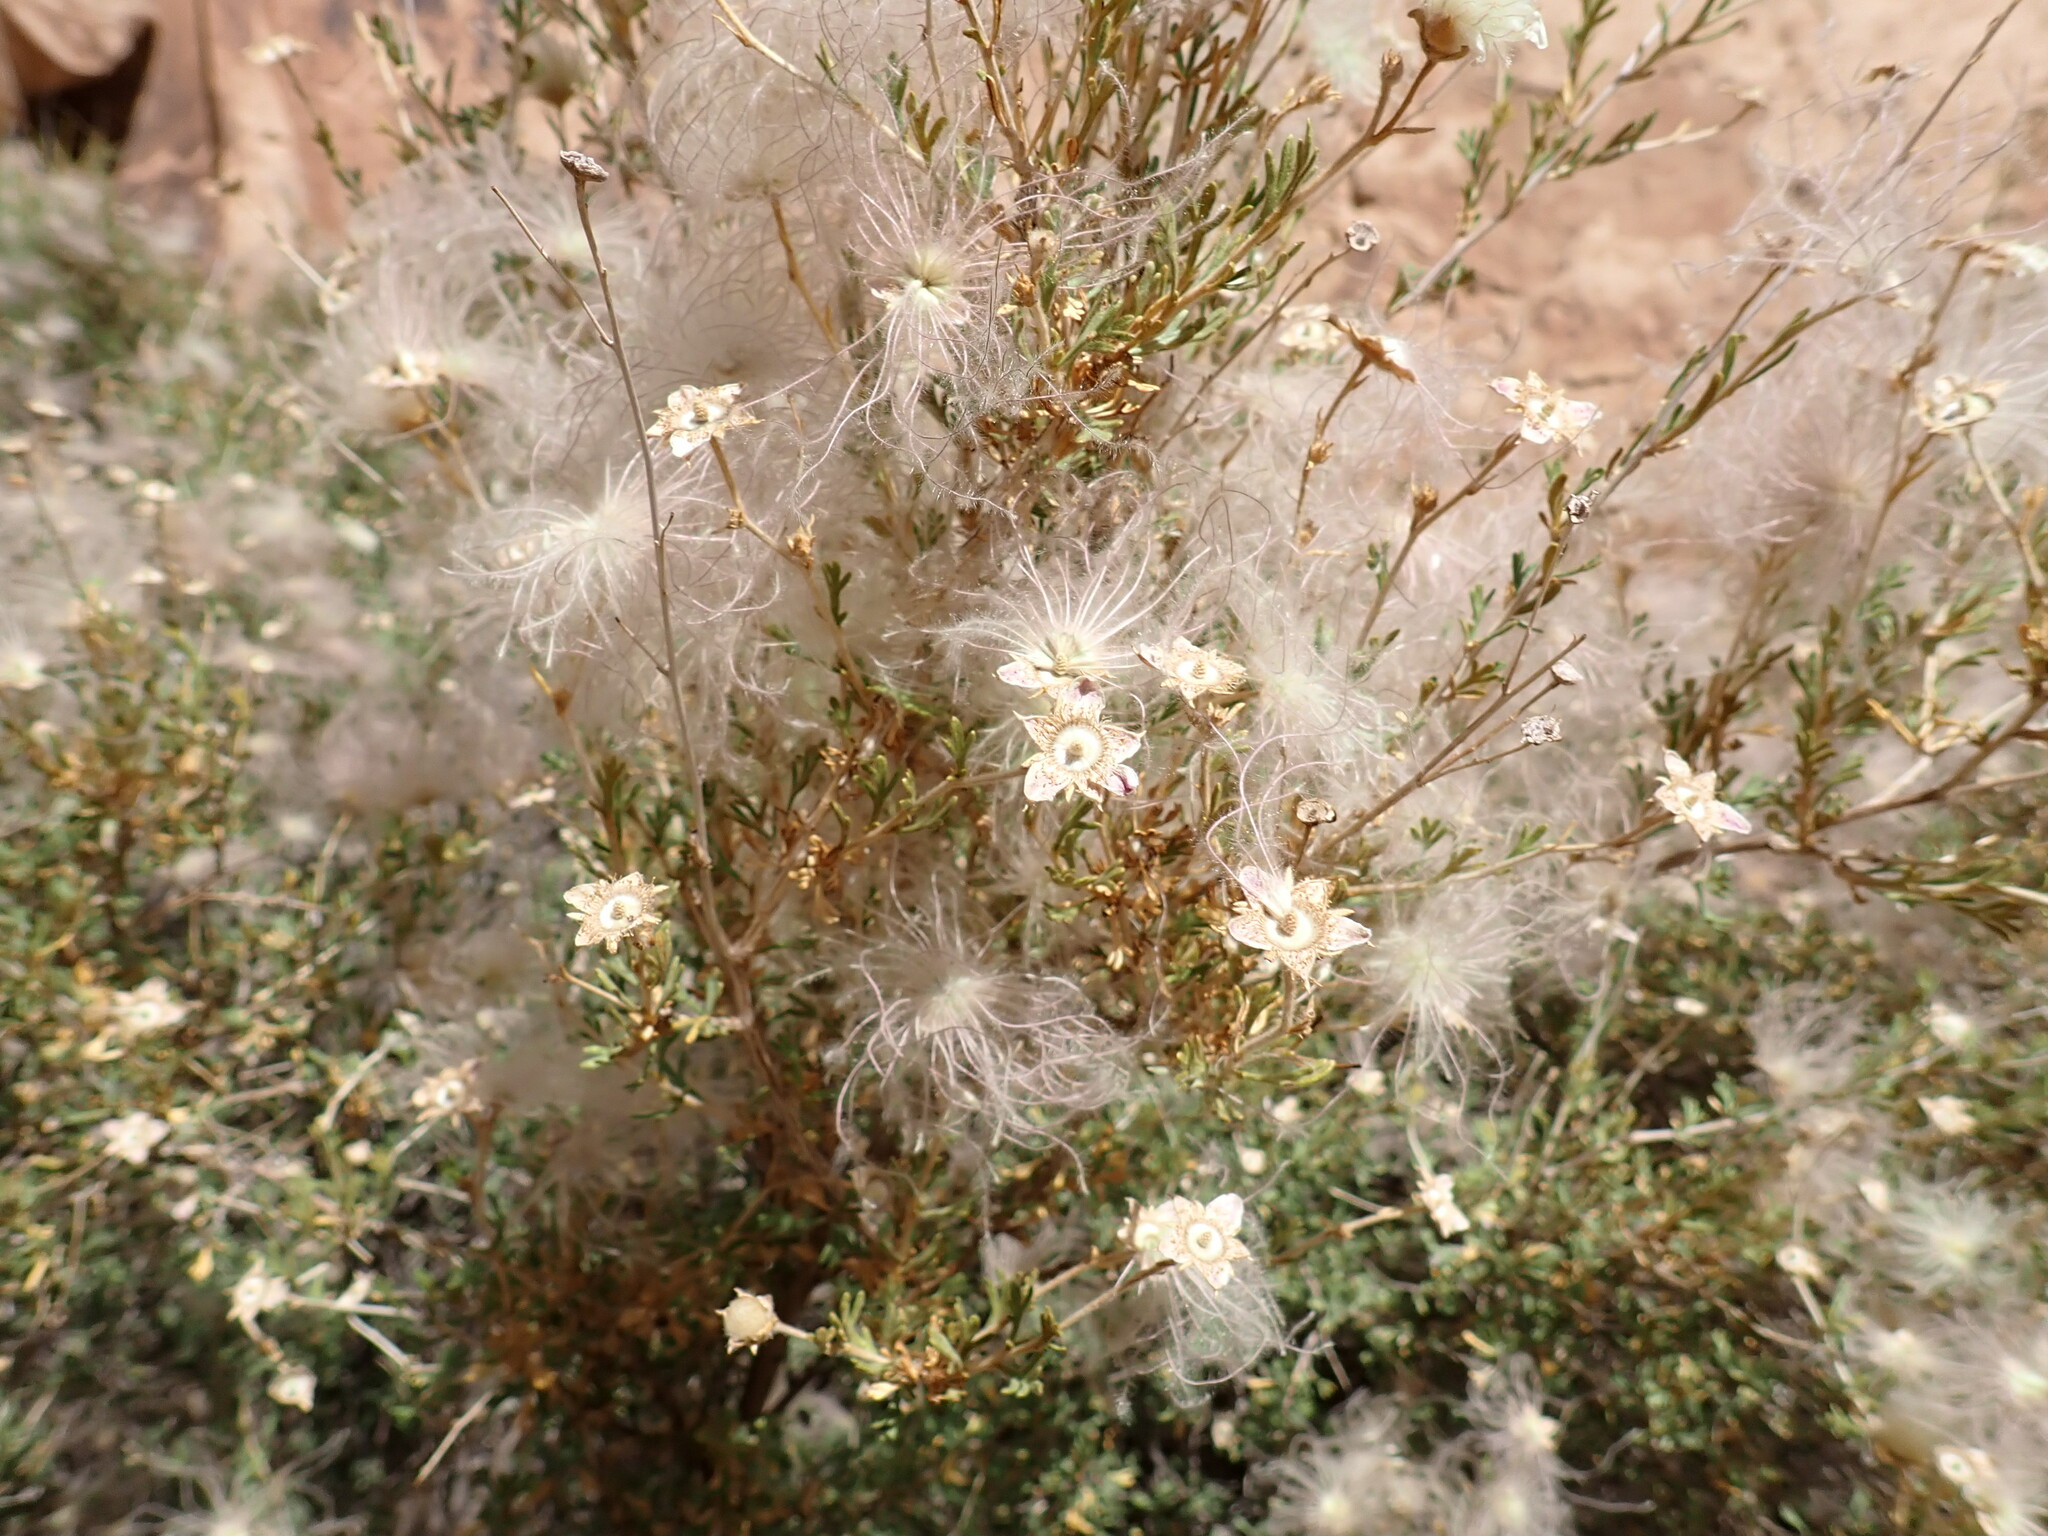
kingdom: Plantae
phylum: Tracheophyta
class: Magnoliopsida
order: Rosales
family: Rosaceae
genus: Fallugia
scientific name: Fallugia paradoxa
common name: Apache-plume
